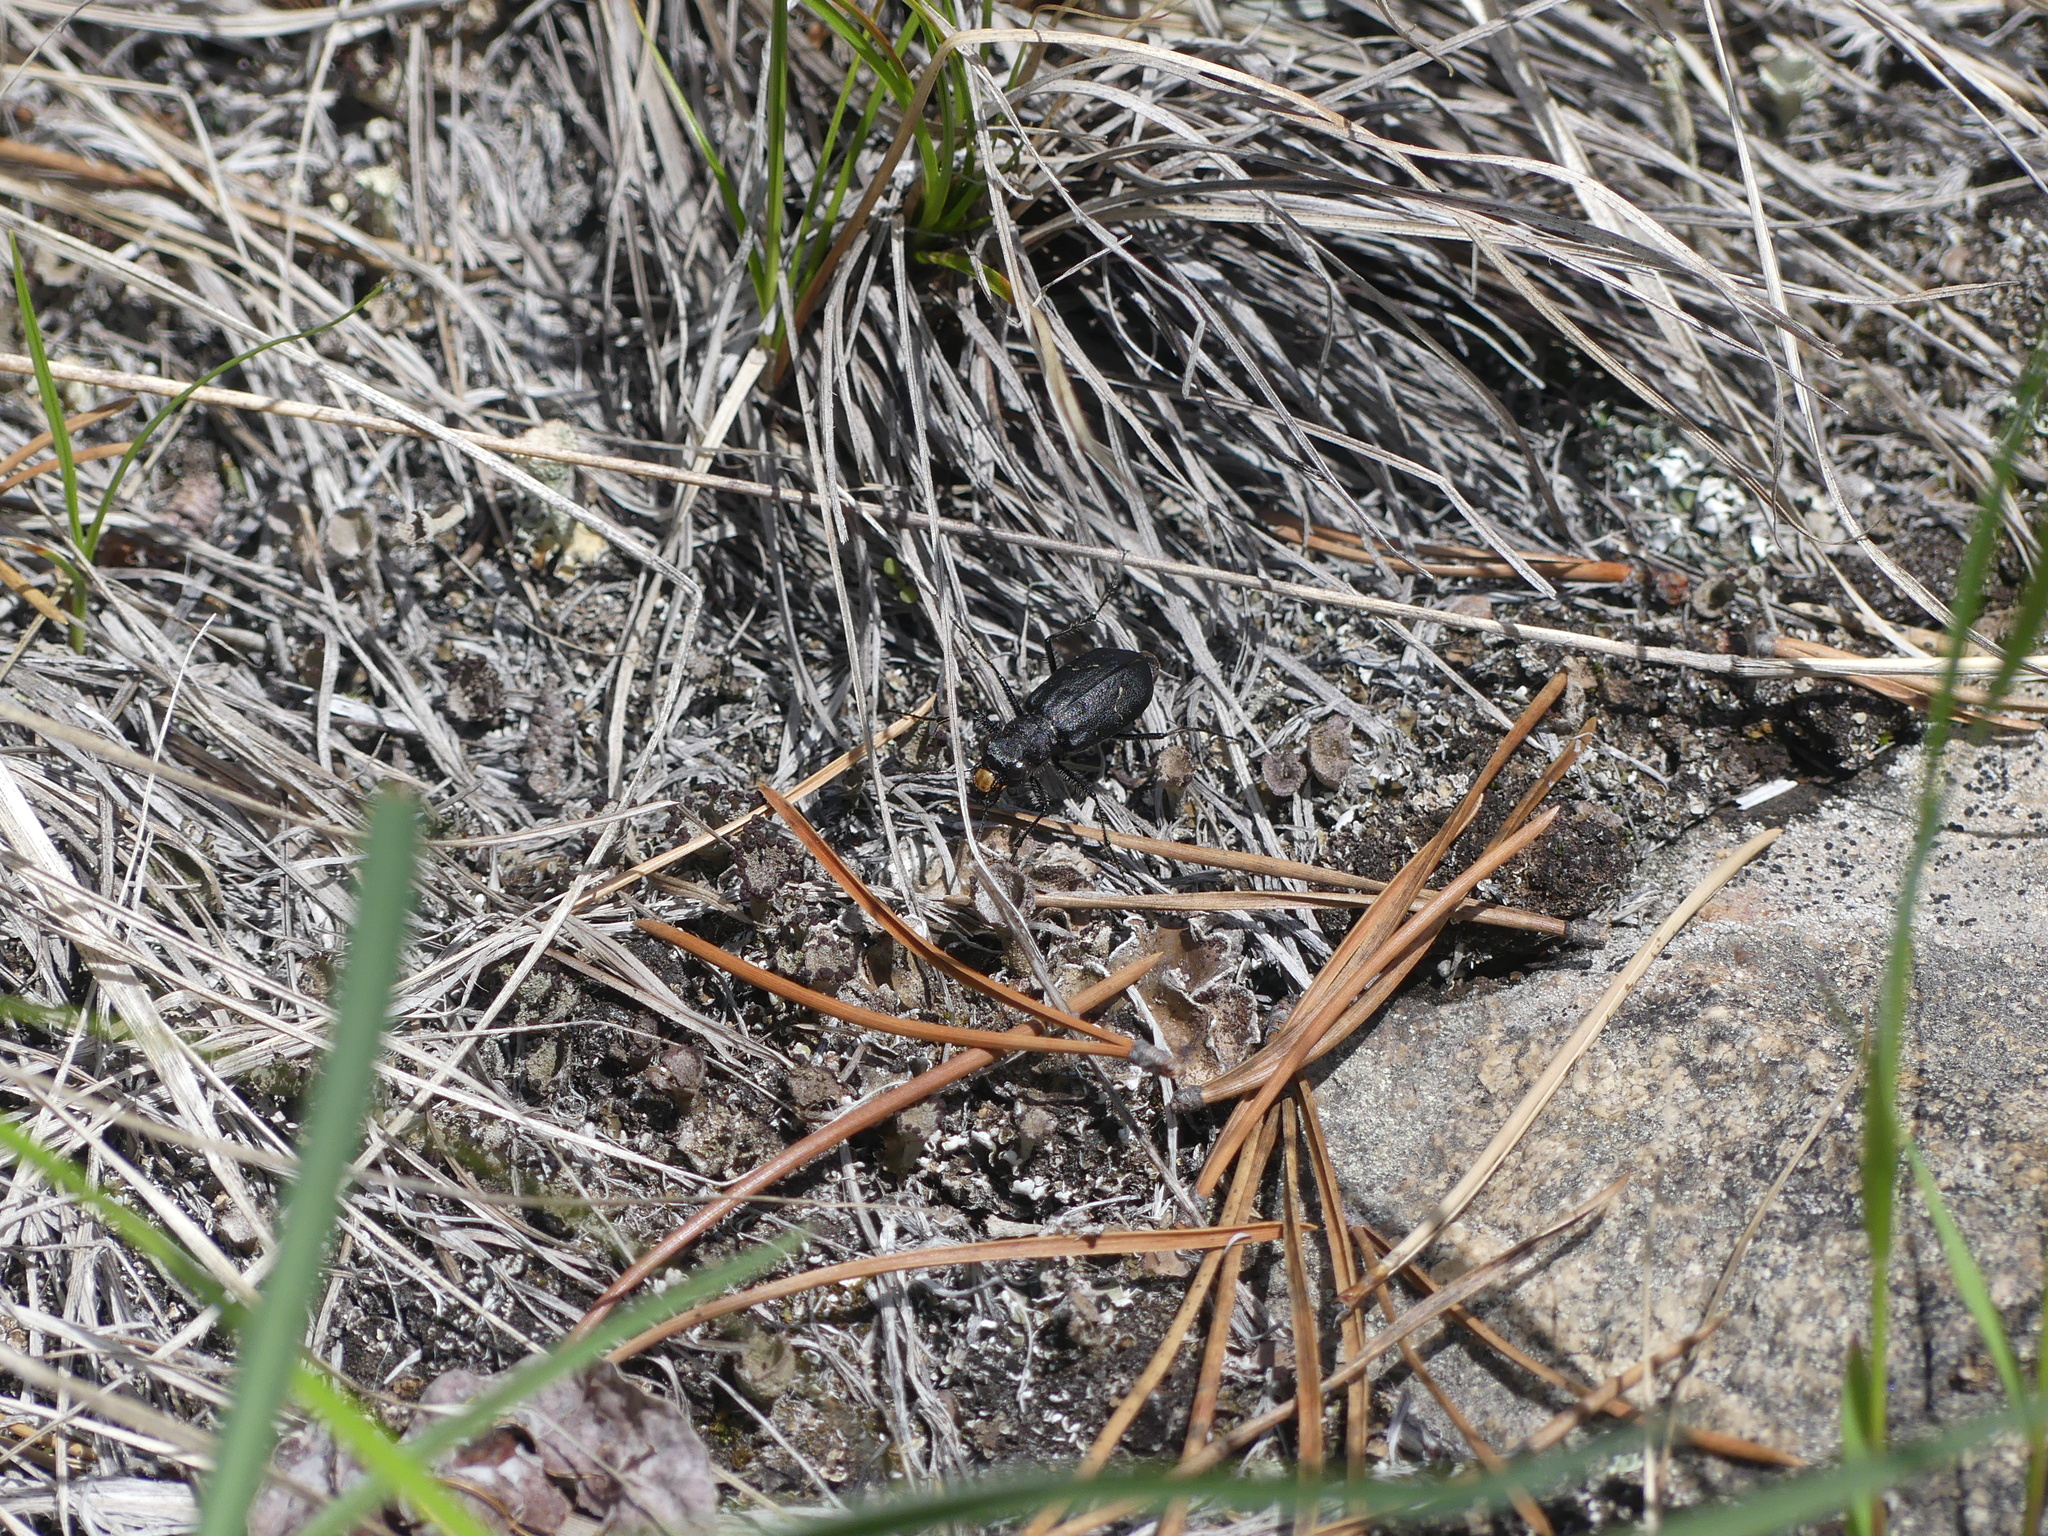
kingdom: Animalia
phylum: Arthropoda
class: Insecta
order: Coleoptera
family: Carabidae
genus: Cicindela
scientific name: Cicindela longilabris
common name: Boreal long-lipped tiger beetle
